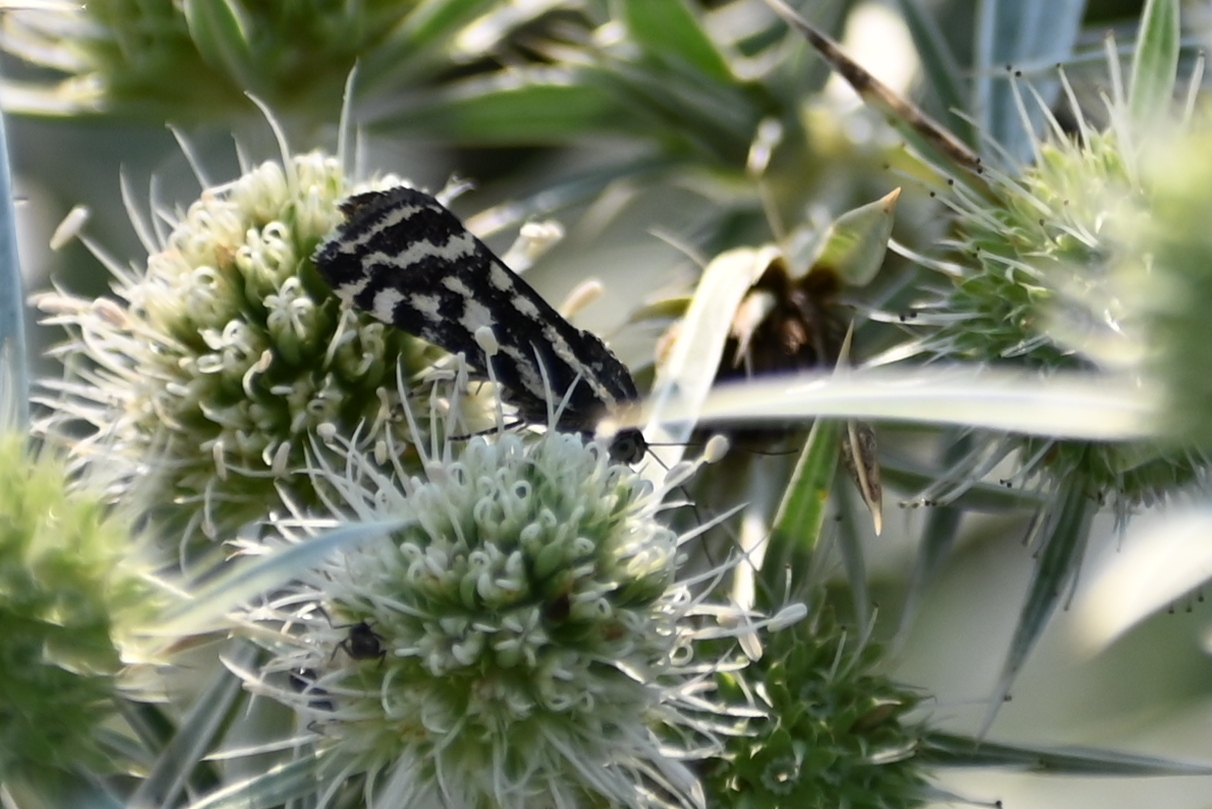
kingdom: Animalia
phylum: Arthropoda
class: Insecta
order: Lepidoptera
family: Noctuidae
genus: Acontia
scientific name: Acontia trabealis
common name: Spotted sulphur
